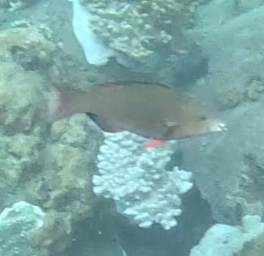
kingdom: Animalia
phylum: Chordata
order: Perciformes
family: Scaridae
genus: Scarus
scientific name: Scarus psittacus
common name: Palenose parrotfish
